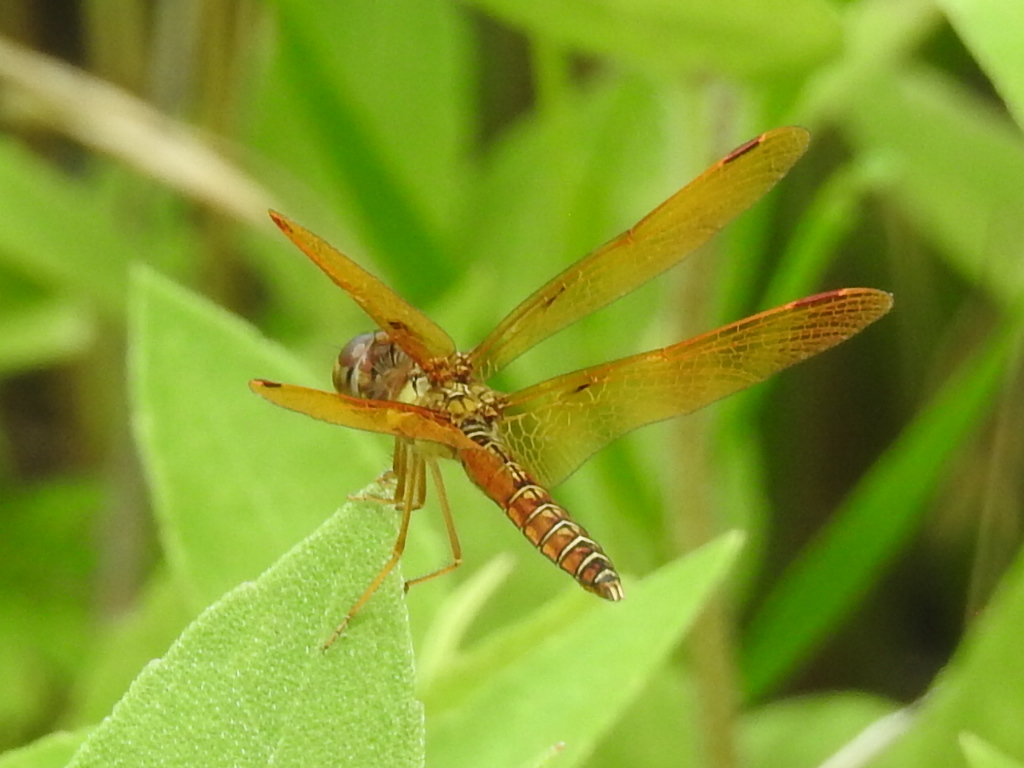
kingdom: Animalia
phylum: Arthropoda
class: Insecta
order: Odonata
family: Libellulidae
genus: Perithemis
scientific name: Perithemis tenera
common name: Eastern amberwing
